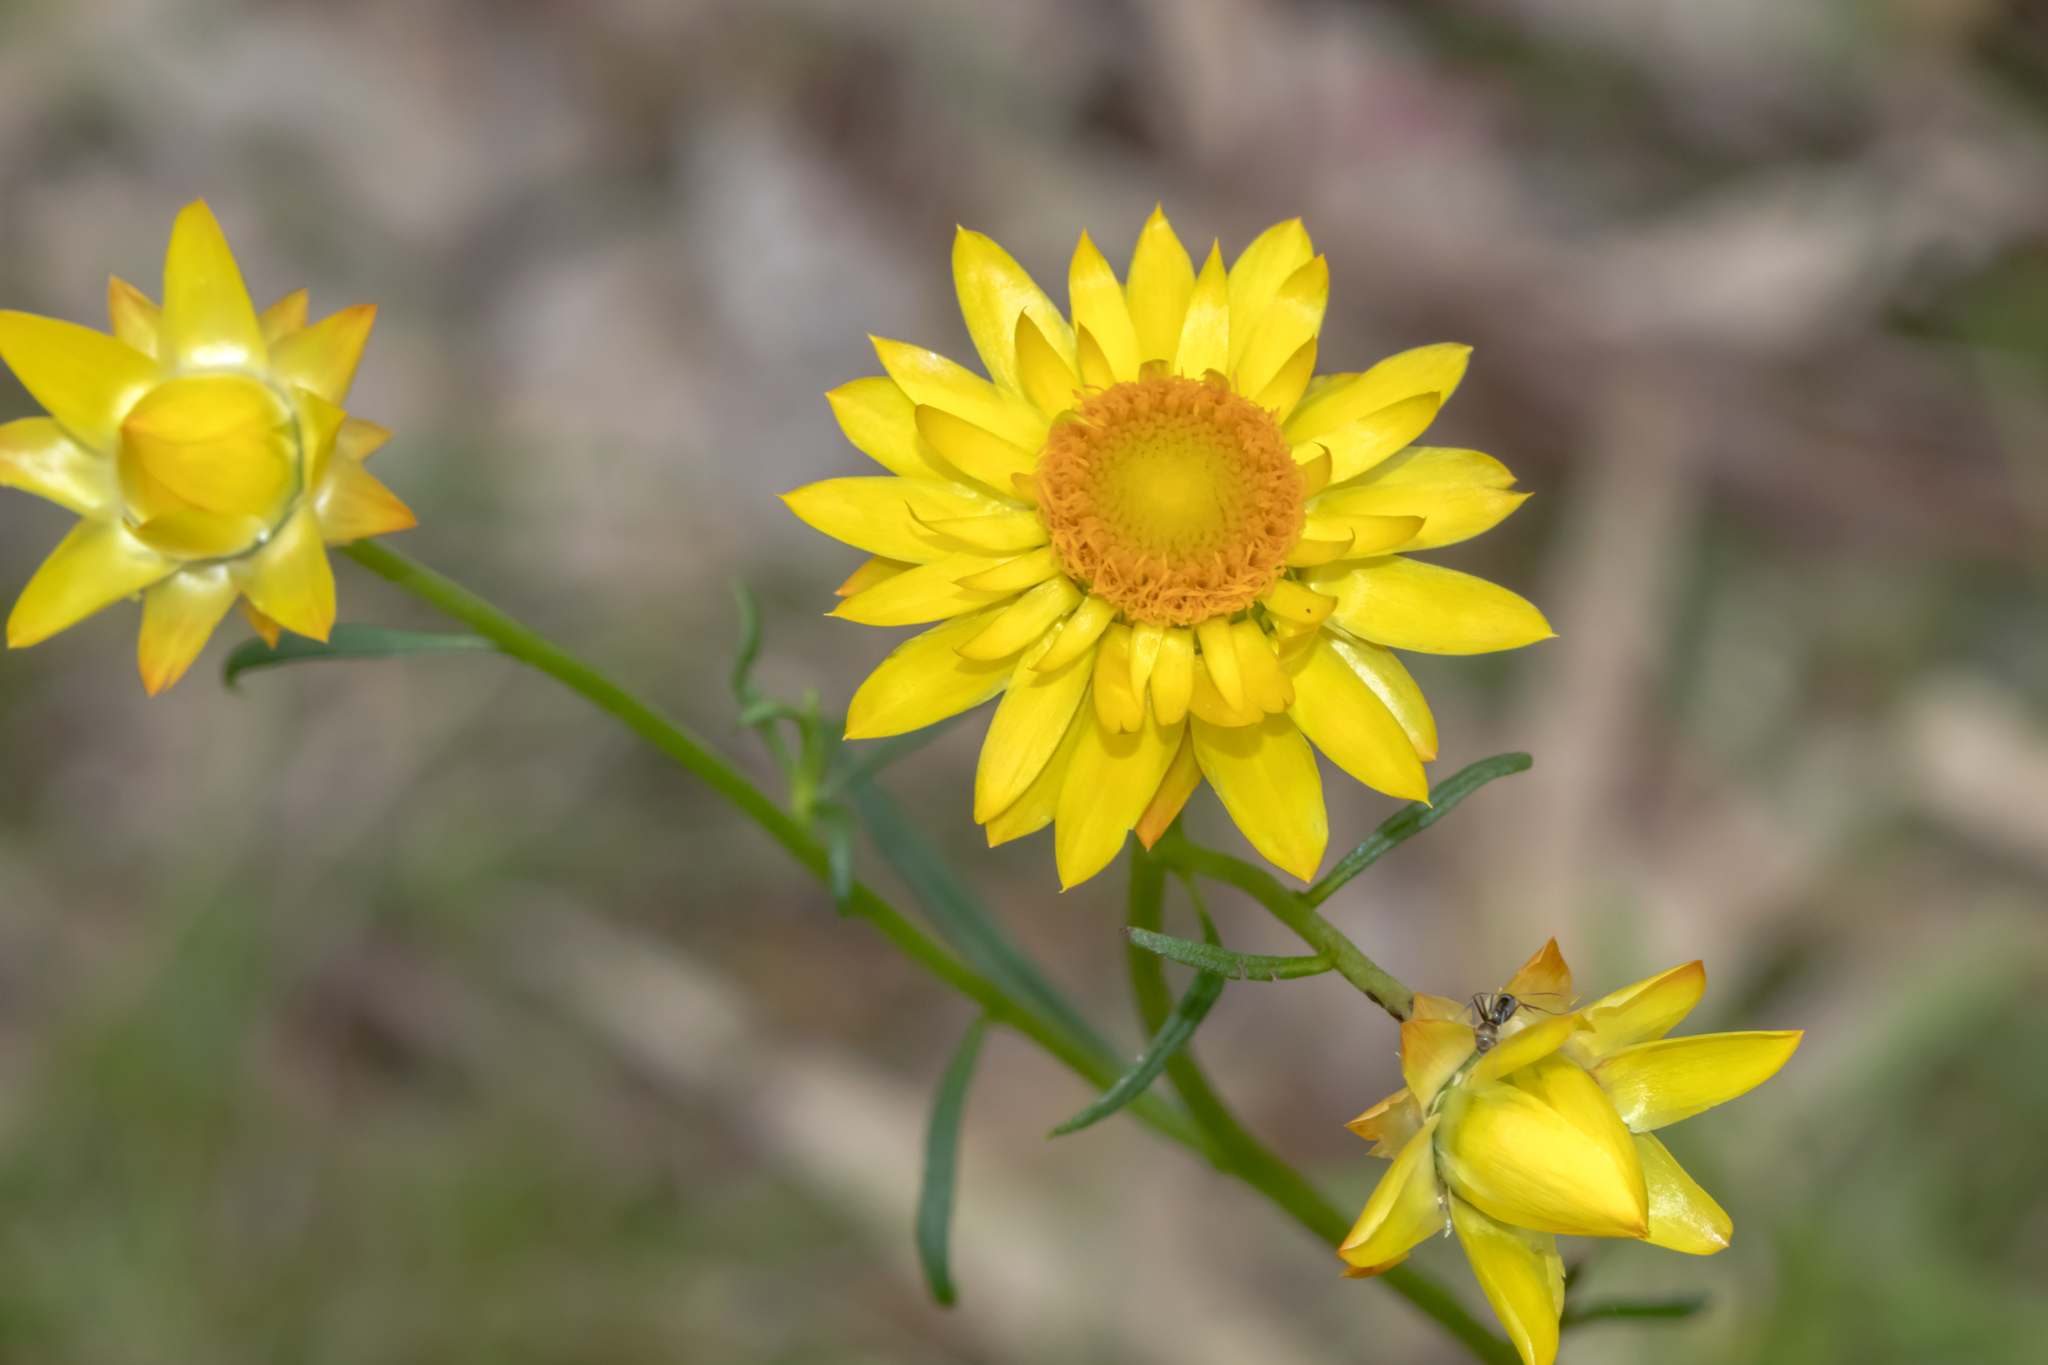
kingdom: Plantae
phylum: Tracheophyta
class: Magnoliopsida
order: Asterales
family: Asteraceae
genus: Xerochrysum
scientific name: Xerochrysum viscosum
